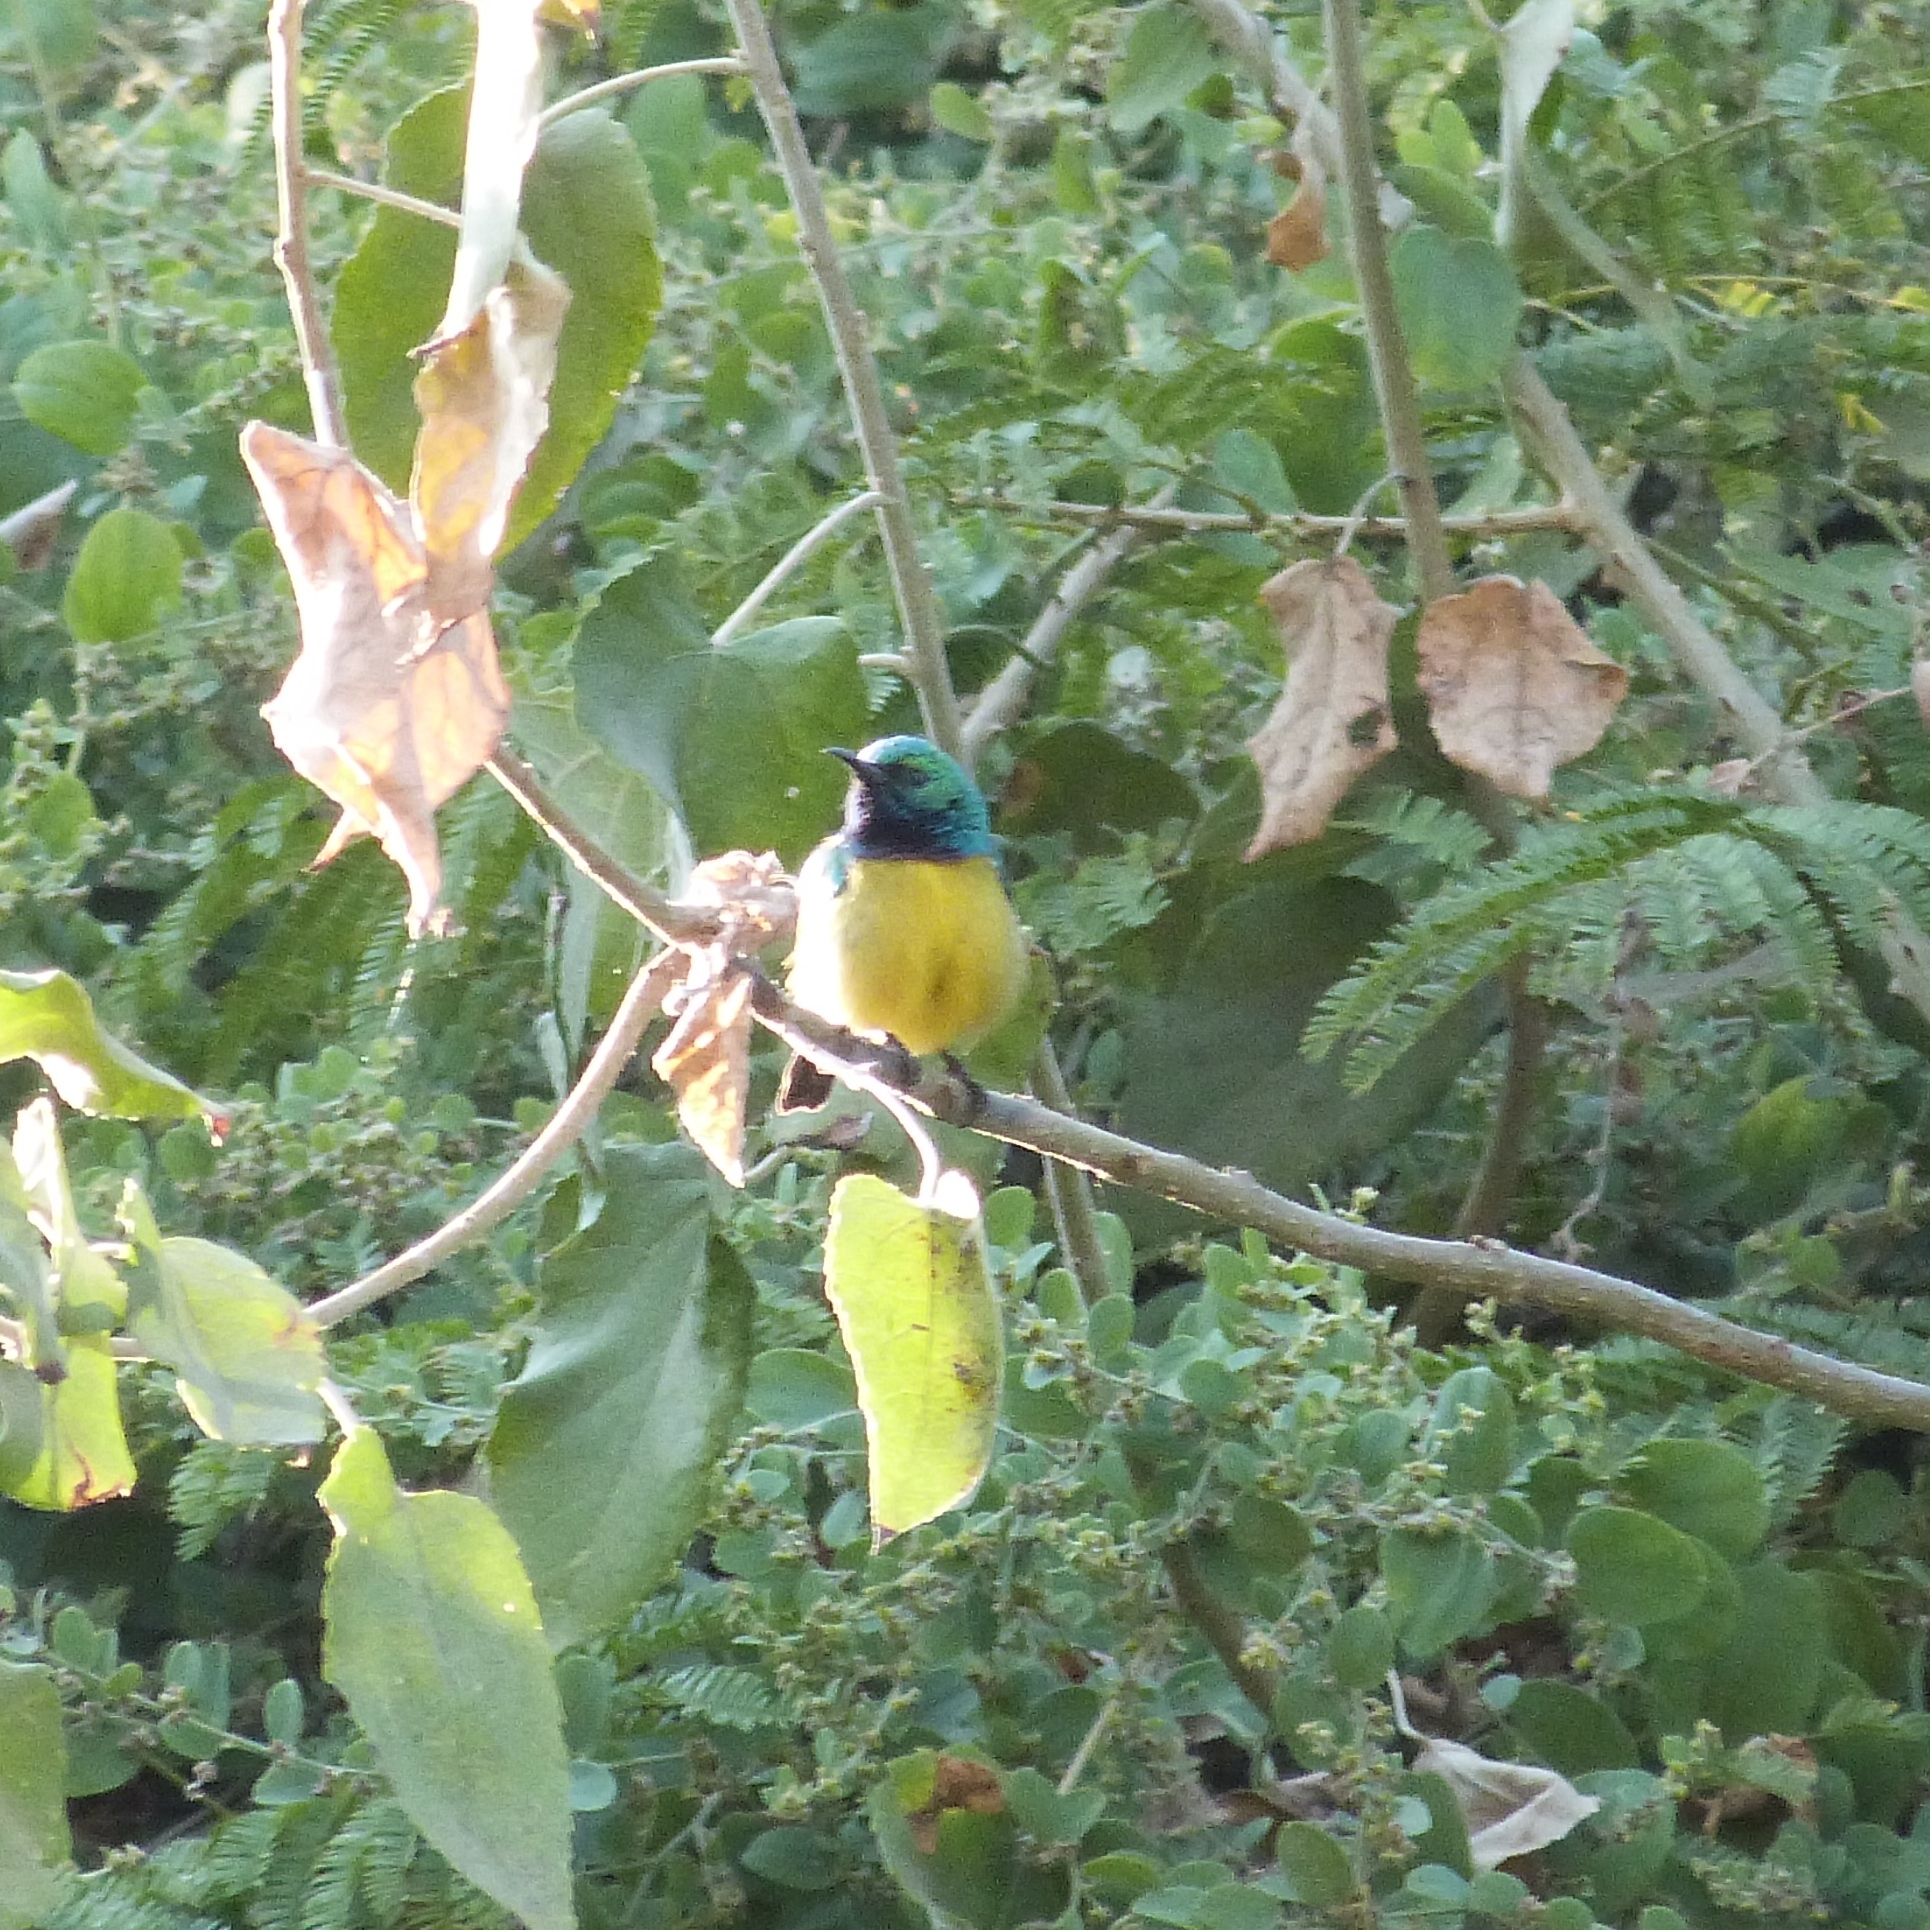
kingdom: Animalia
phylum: Chordata
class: Aves
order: Passeriformes
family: Nectariniidae
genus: Hedydipna
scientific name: Hedydipna collaris
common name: Collared sunbird
